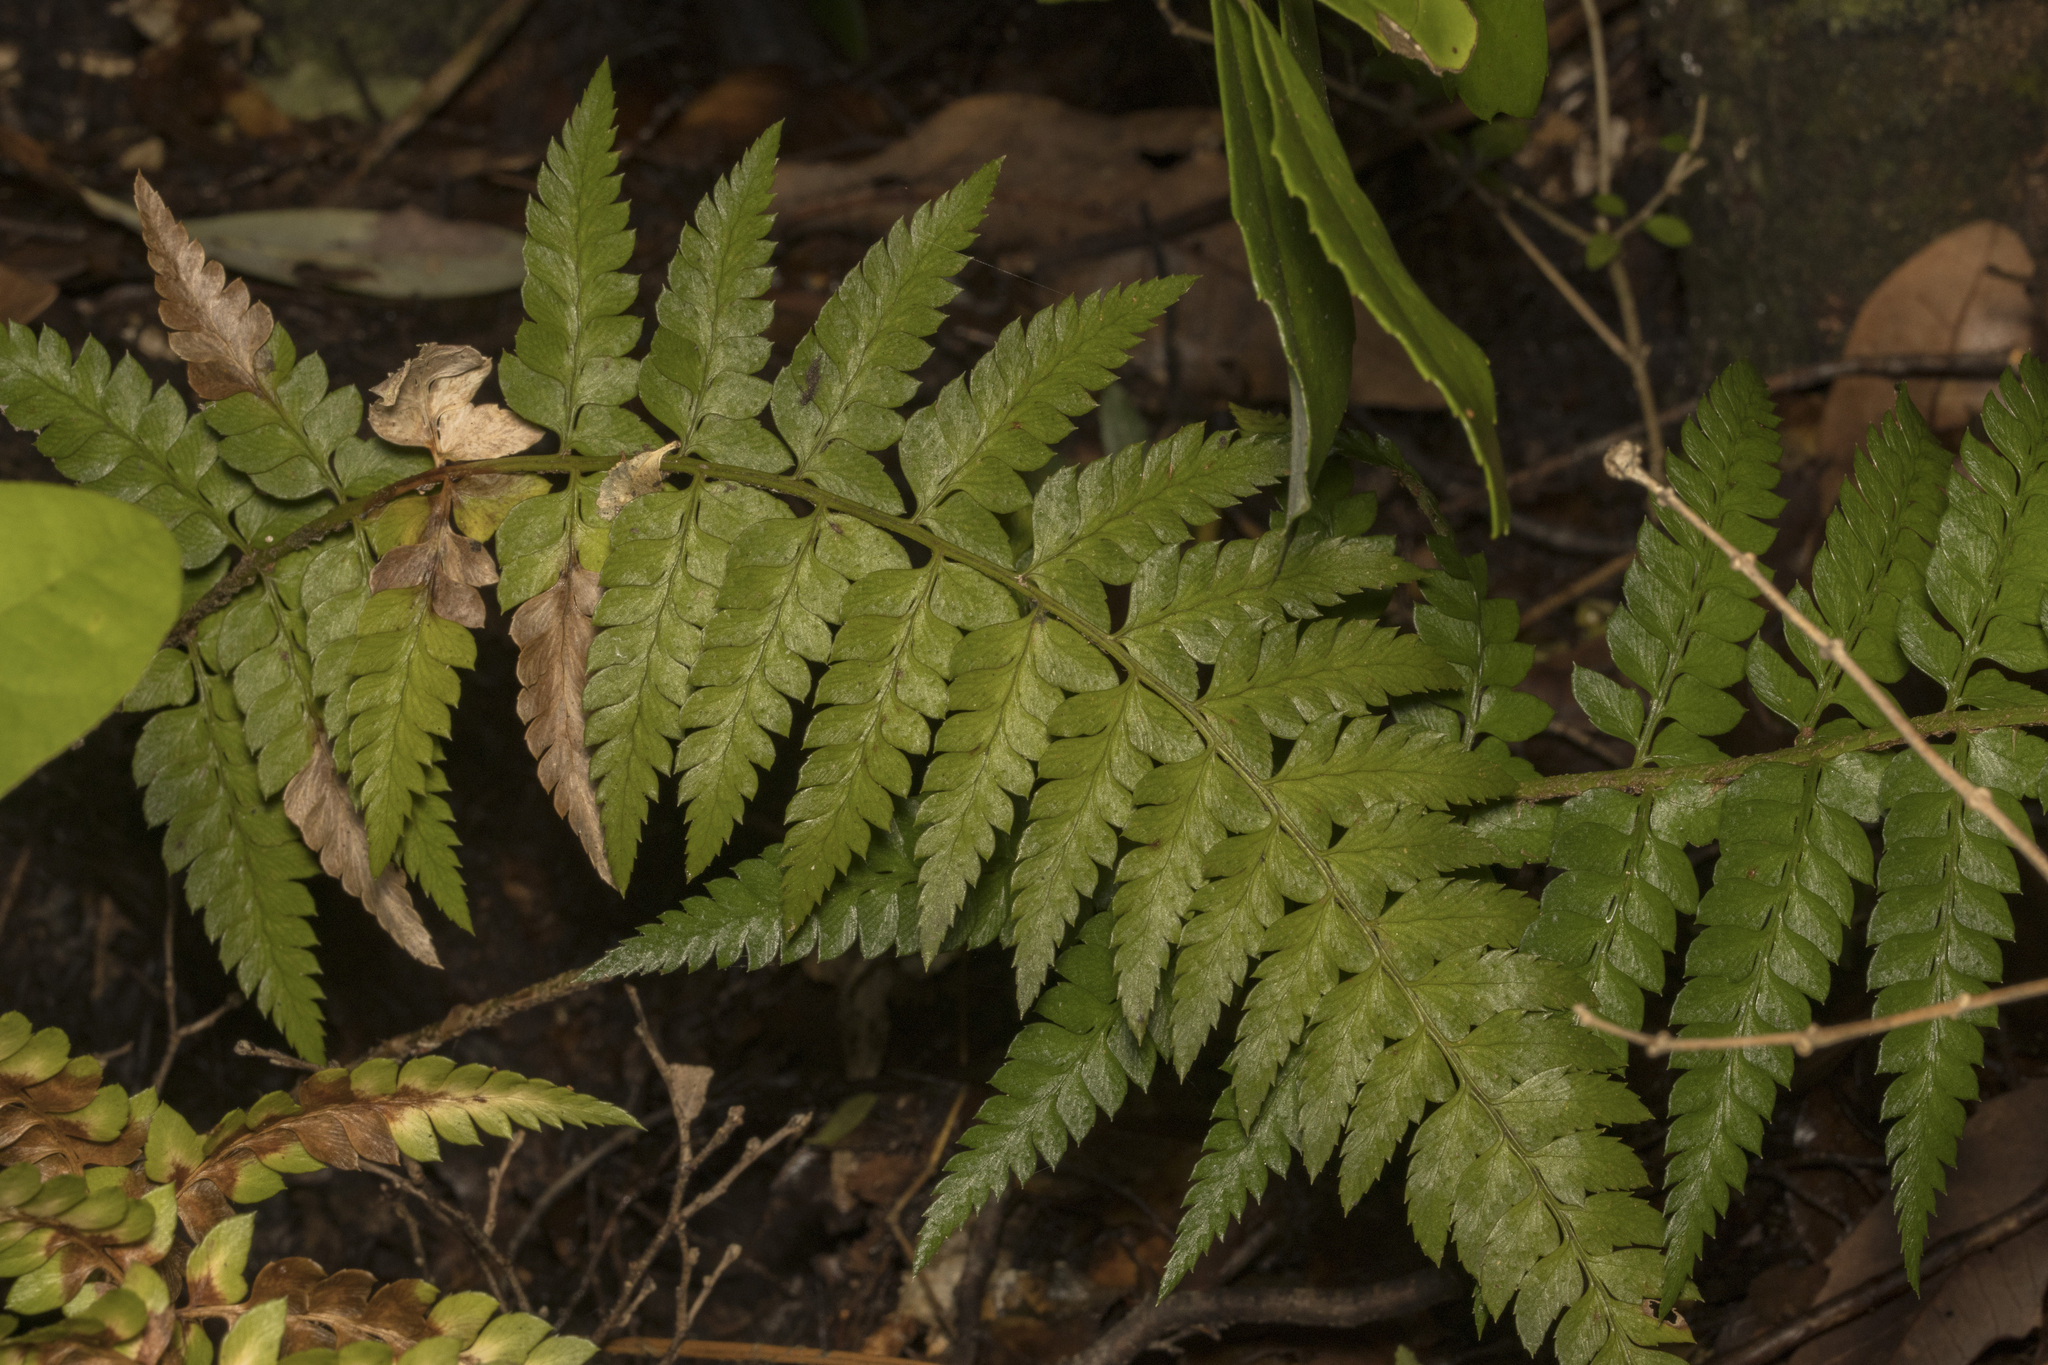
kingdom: Plantae
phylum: Tracheophyta
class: Polypodiopsida
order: Polypodiales
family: Dryopteridaceae
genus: Polystichum
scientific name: Polystichum chilense
